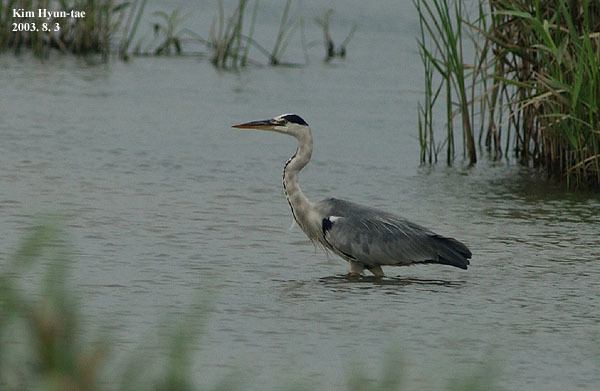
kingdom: Animalia
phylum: Chordata
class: Aves
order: Pelecaniformes
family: Ardeidae
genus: Ardea
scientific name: Ardea cinerea
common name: Grey heron
